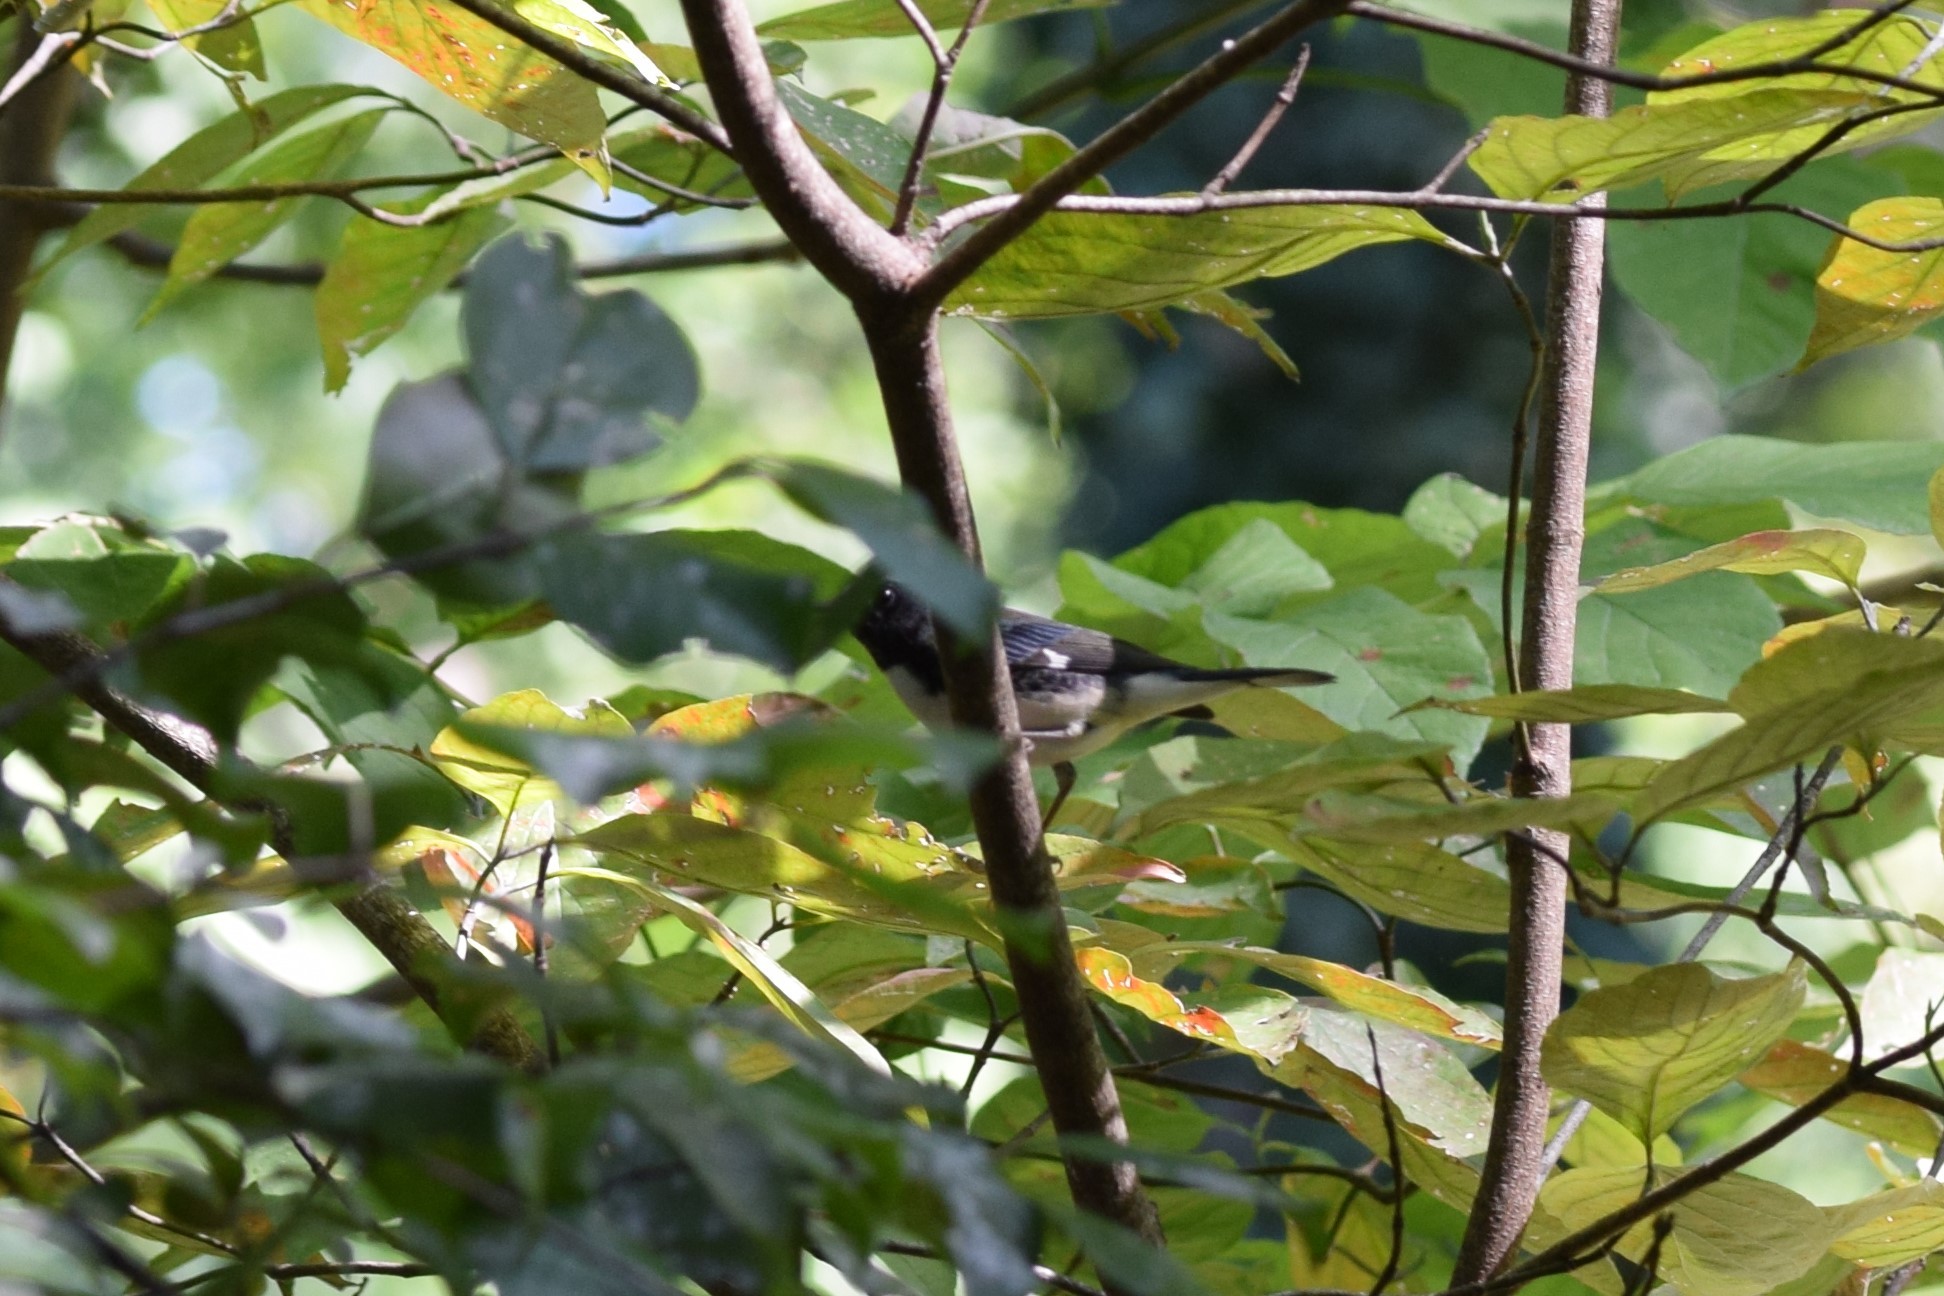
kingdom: Animalia
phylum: Chordata
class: Aves
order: Passeriformes
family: Parulidae
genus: Setophaga
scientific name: Setophaga caerulescens
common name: Black-throated blue warbler
